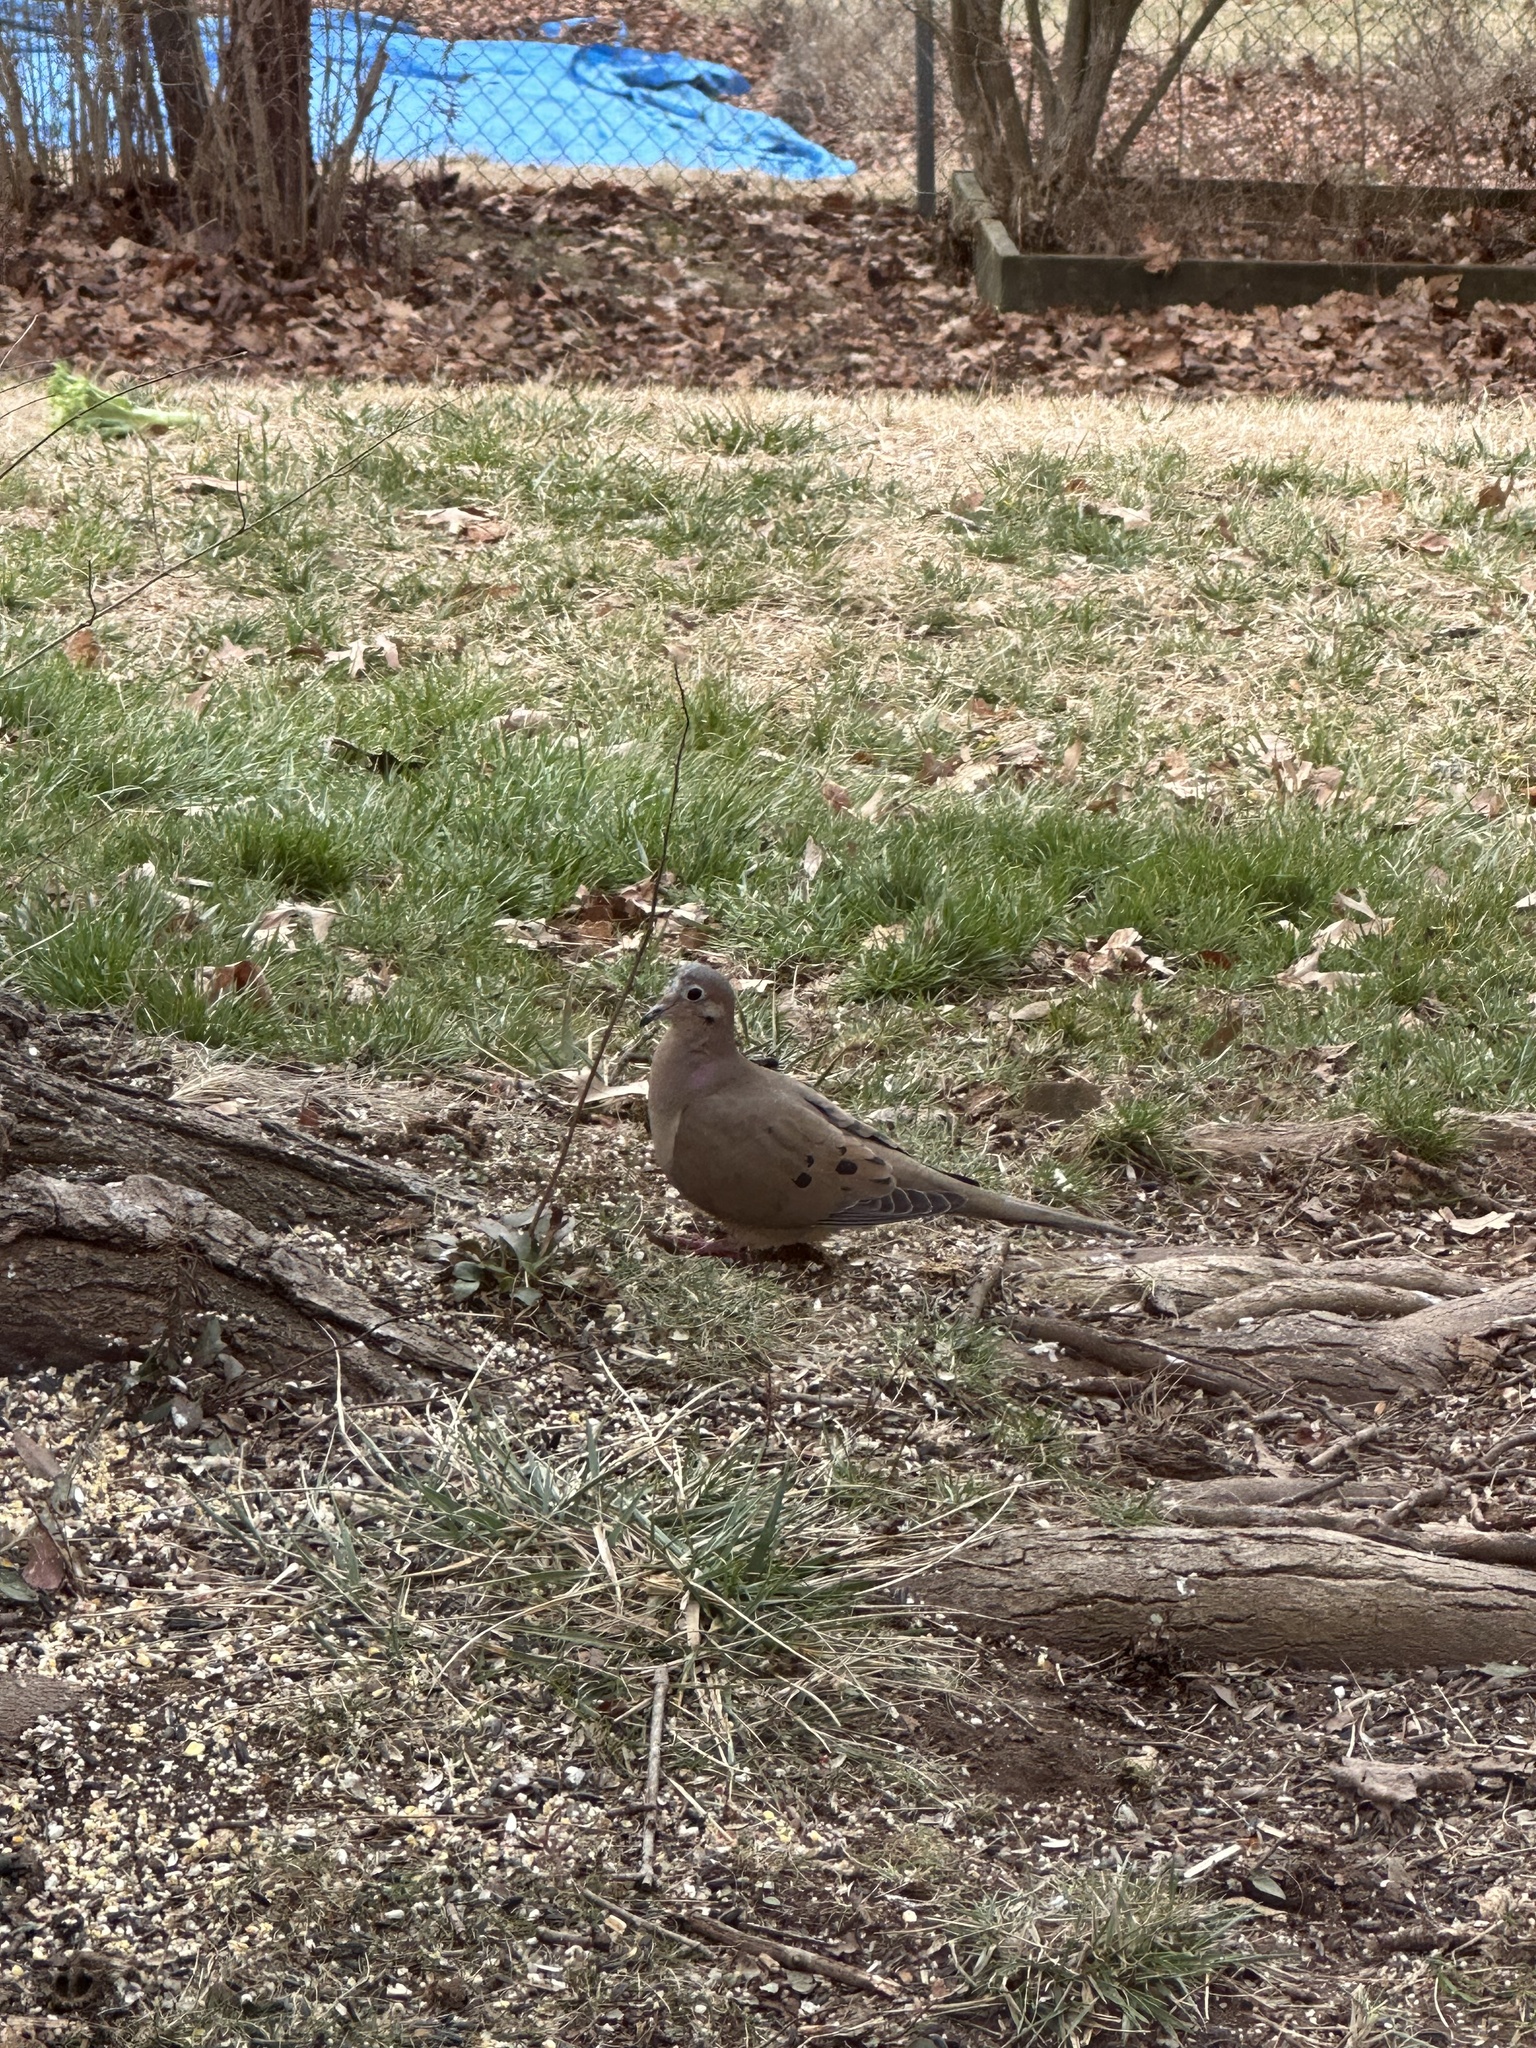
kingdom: Animalia
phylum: Chordata
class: Aves
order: Columbiformes
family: Columbidae
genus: Zenaida
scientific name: Zenaida macroura
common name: Mourning dove
